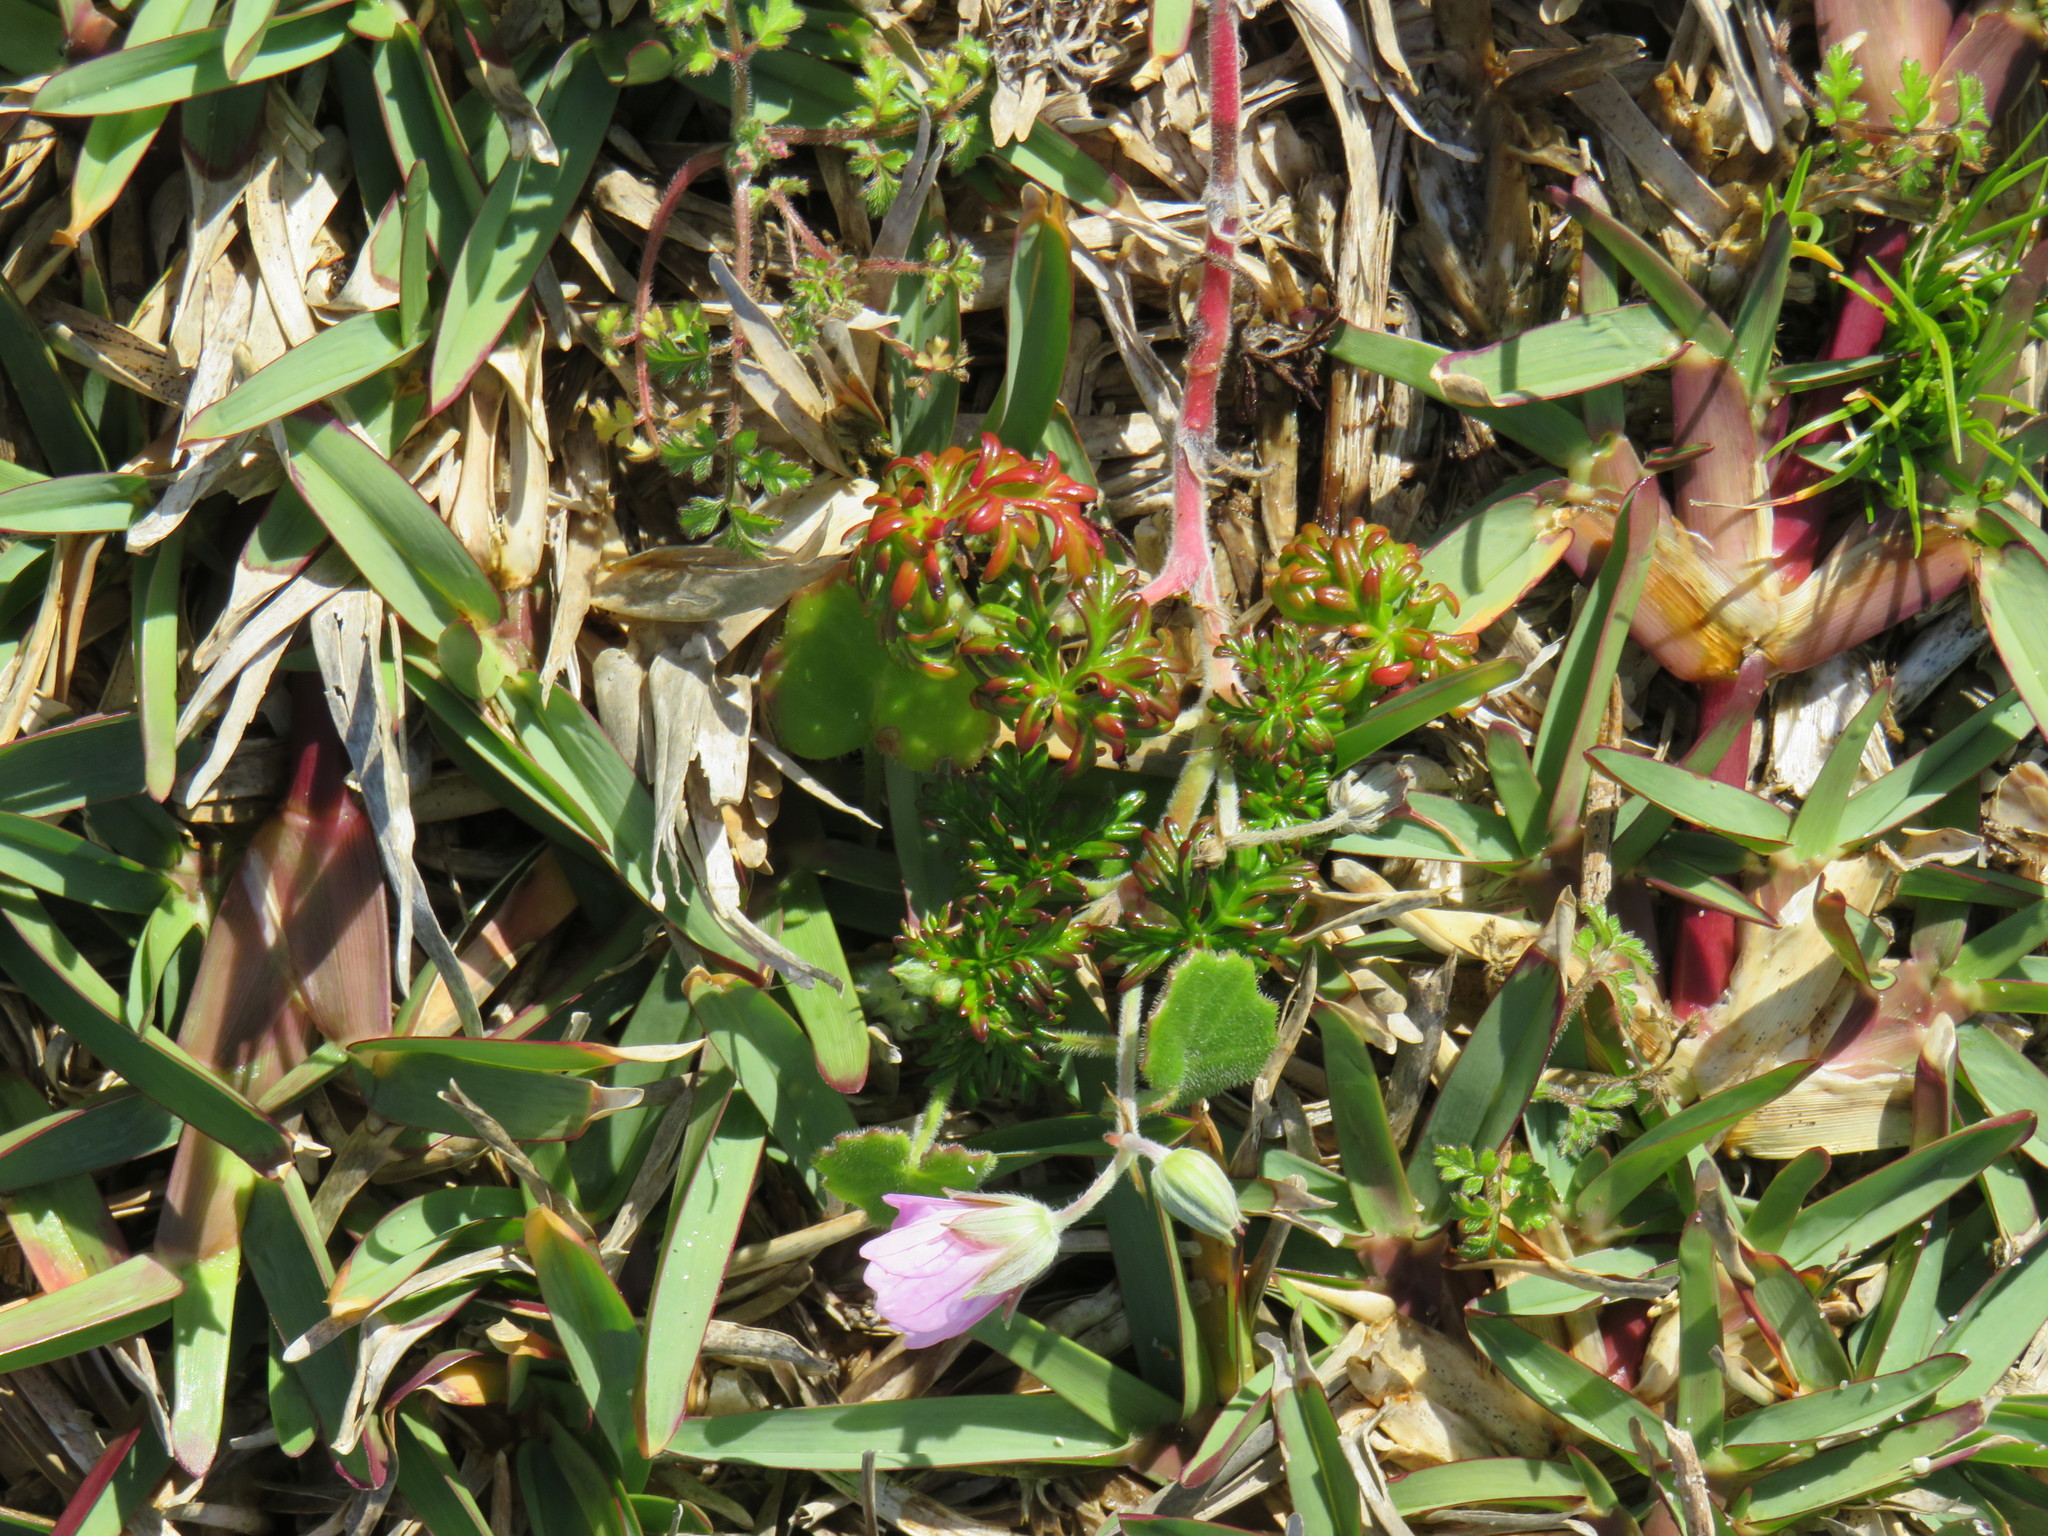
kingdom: Plantae
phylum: Tracheophyta
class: Magnoliopsida
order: Geraniales
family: Geraniaceae
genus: Geranium
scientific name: Geranium incanum
